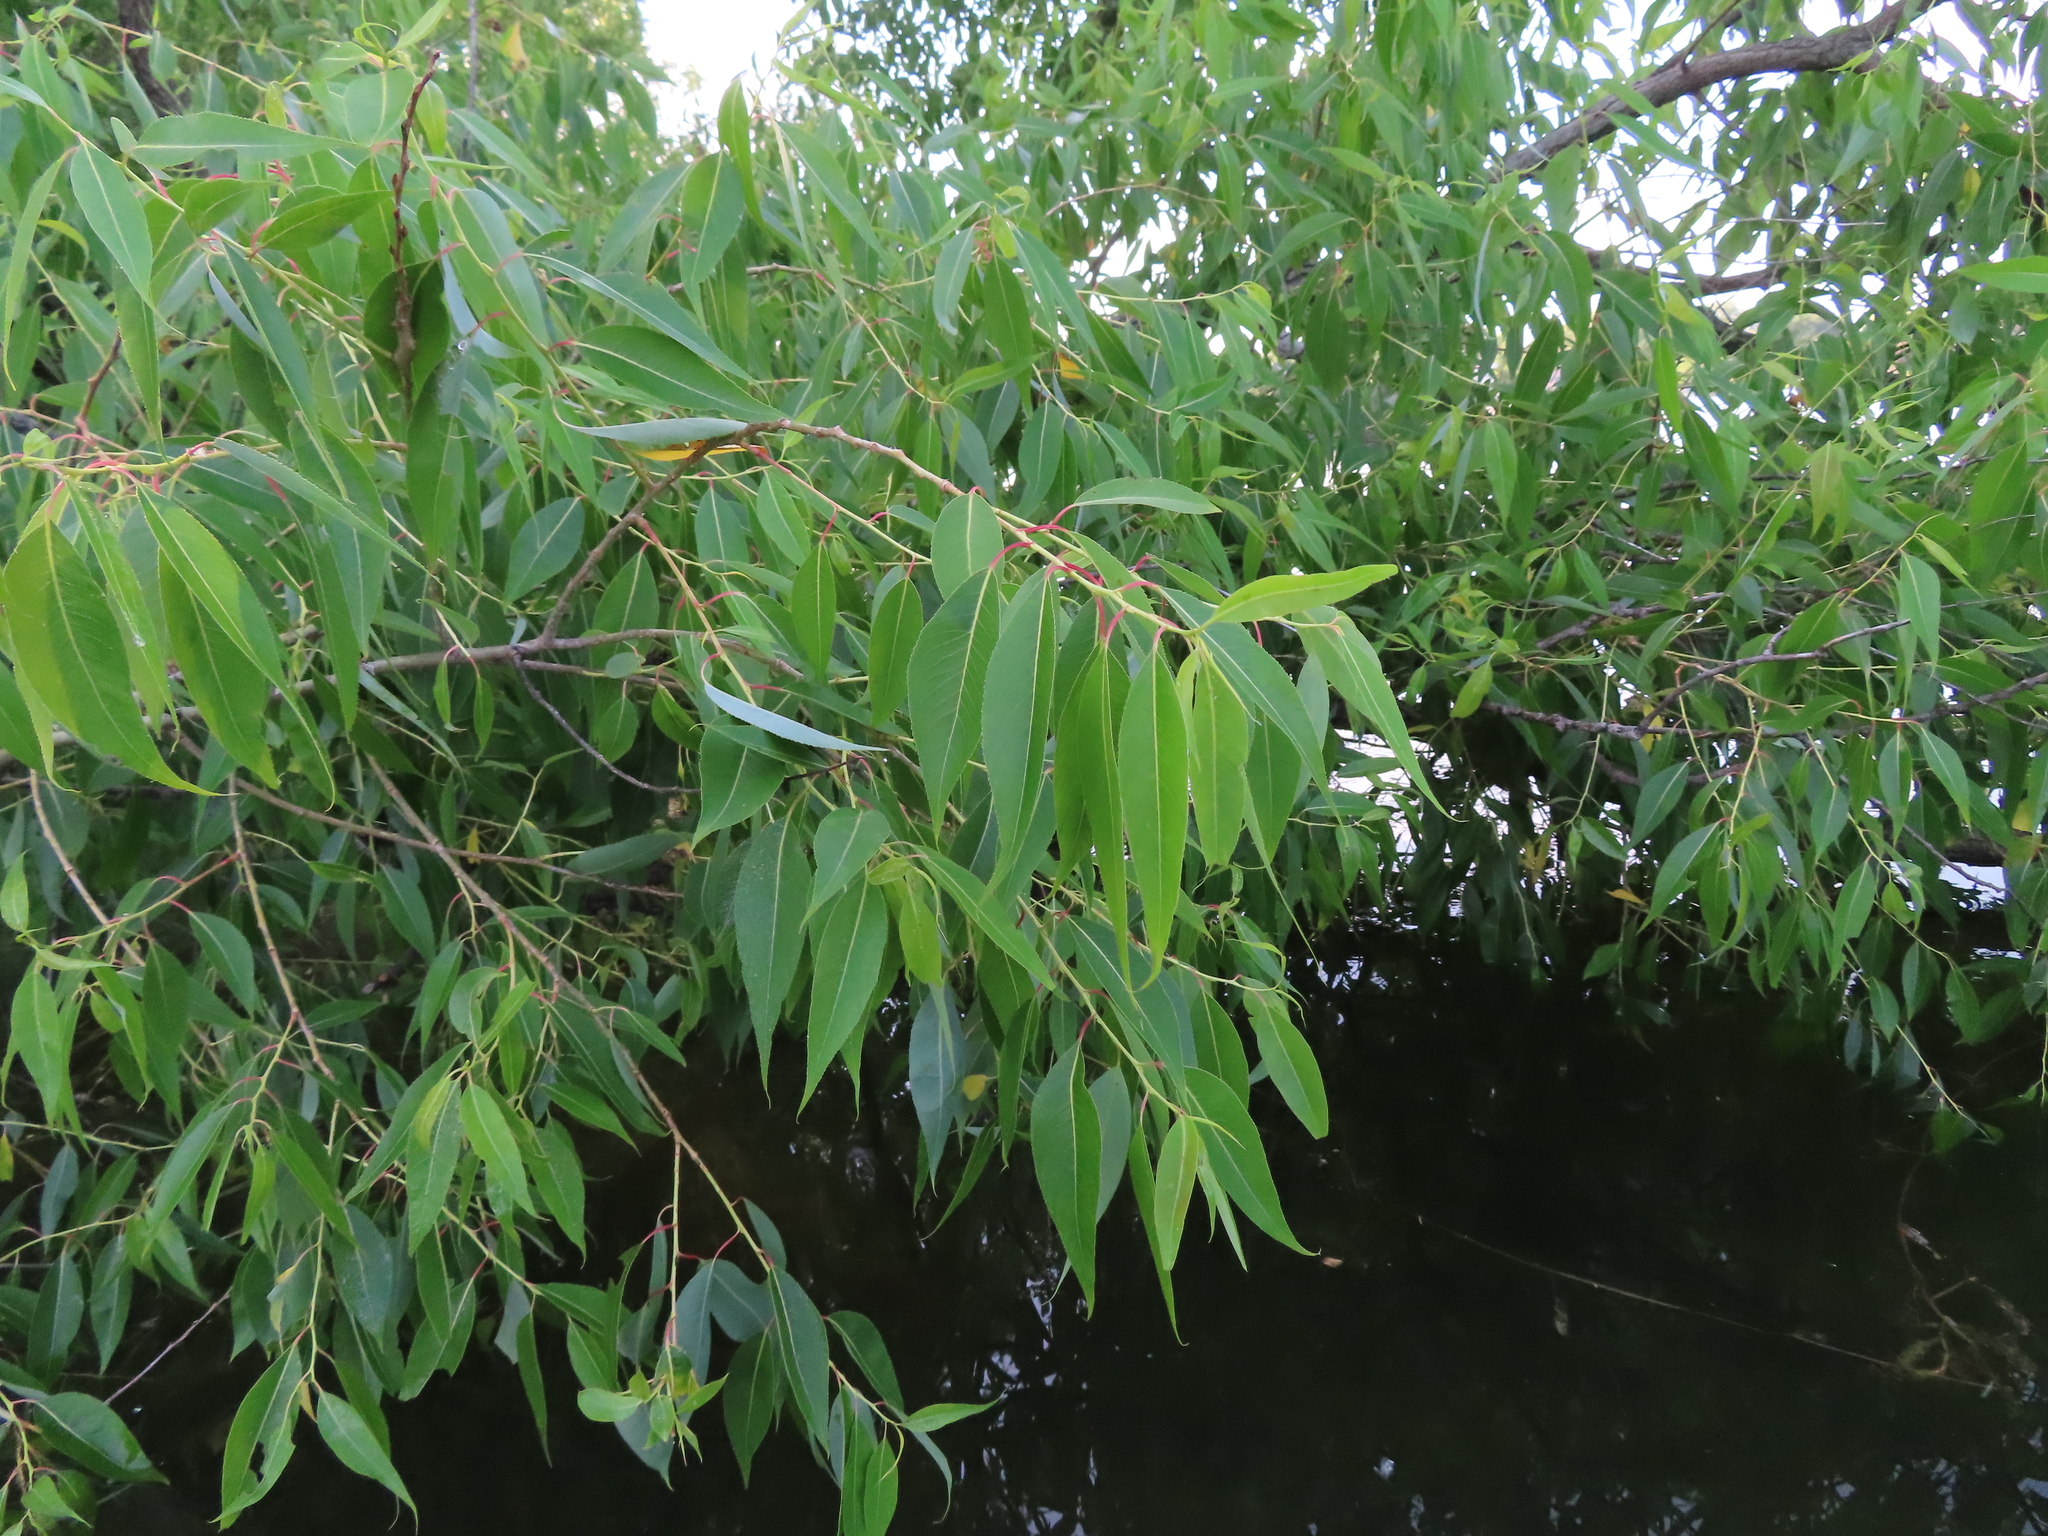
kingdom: Plantae
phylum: Tracheophyta
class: Magnoliopsida
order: Malpighiales
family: Salicaceae
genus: Salix
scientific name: Salix amygdaloides
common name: Peach leaf willow
